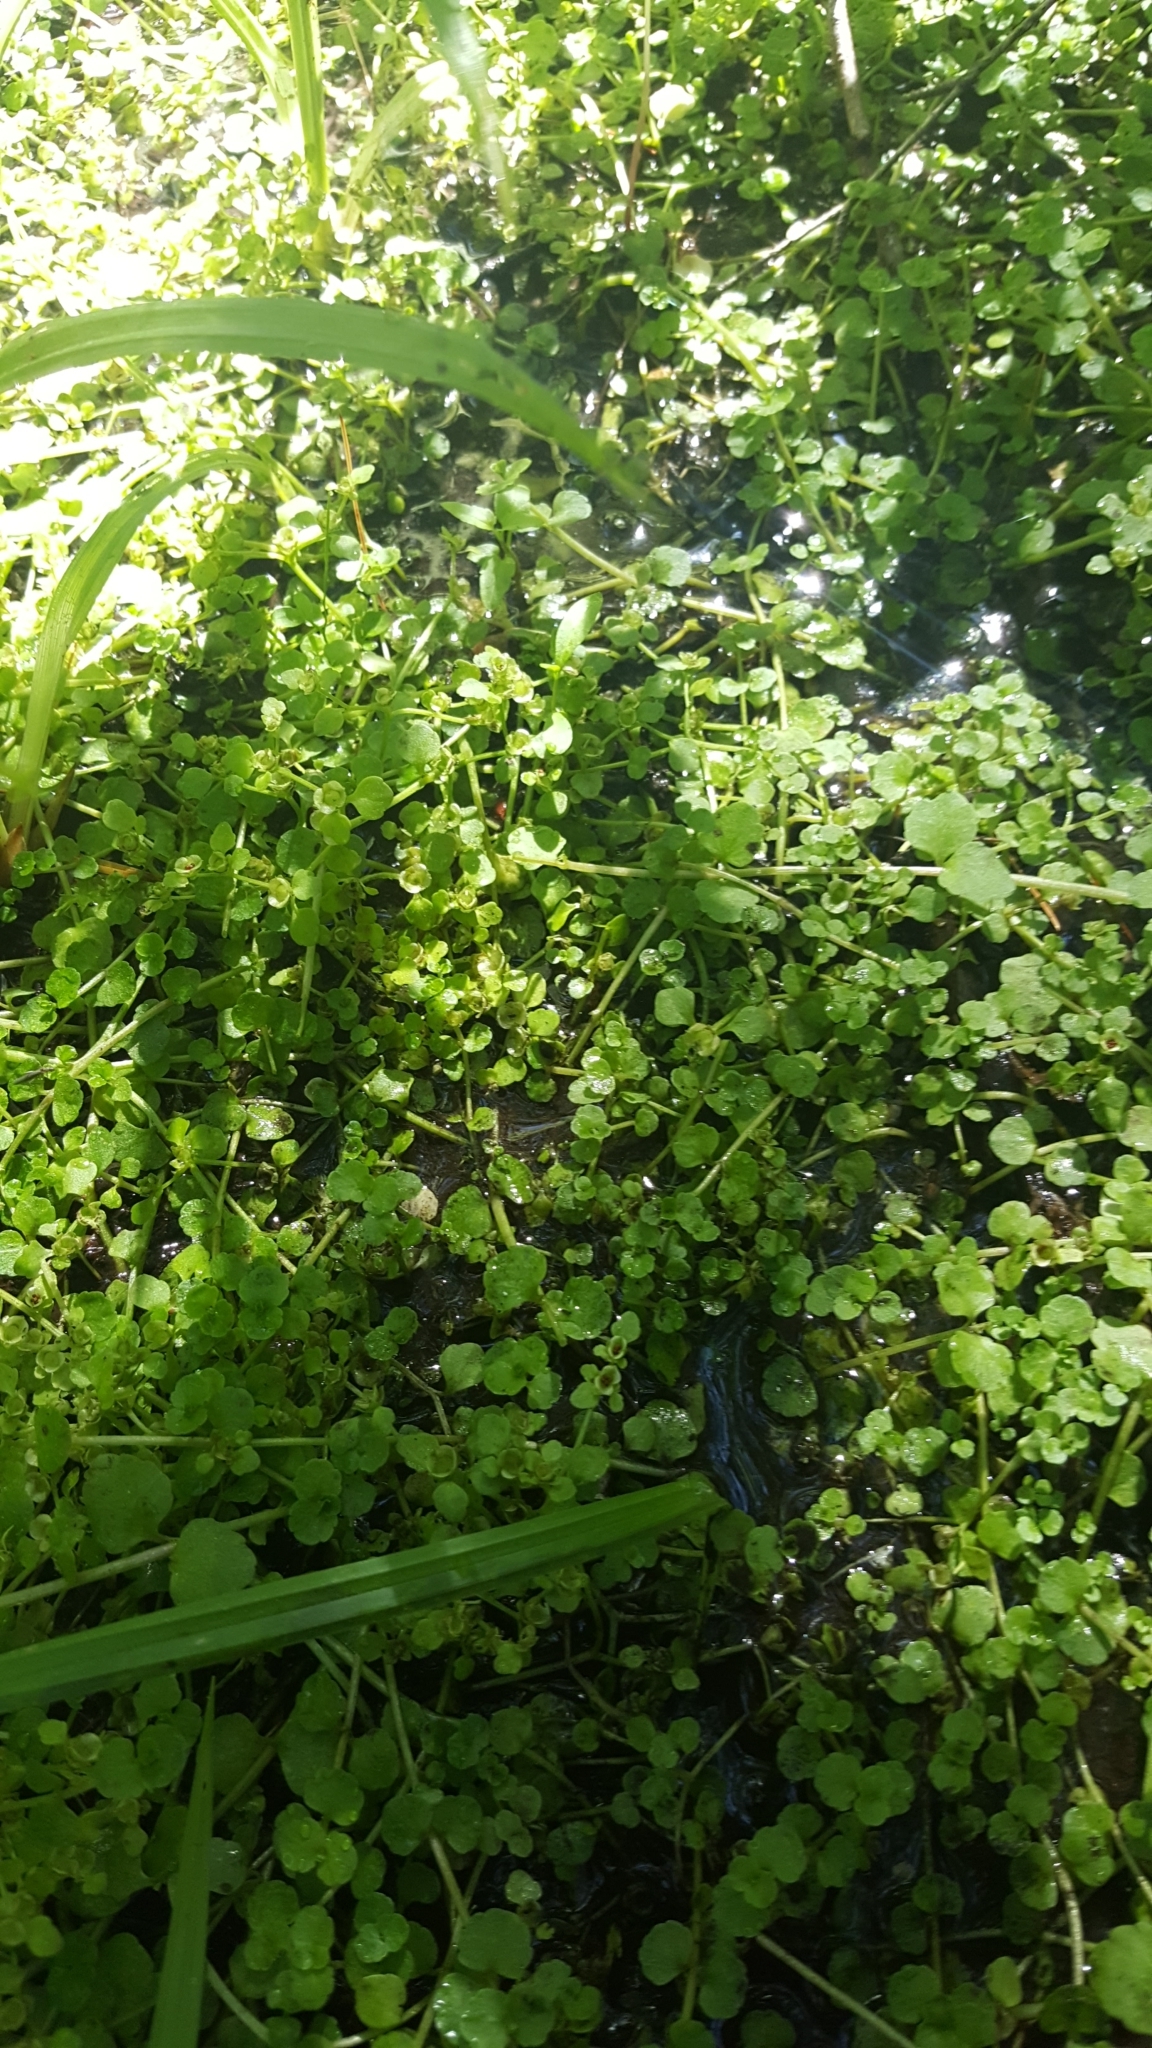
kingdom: Plantae
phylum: Tracheophyta
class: Magnoliopsida
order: Saxifragales
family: Saxifragaceae
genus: Chrysosplenium
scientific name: Chrysosplenium americanum
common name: American golden-saxifrage
